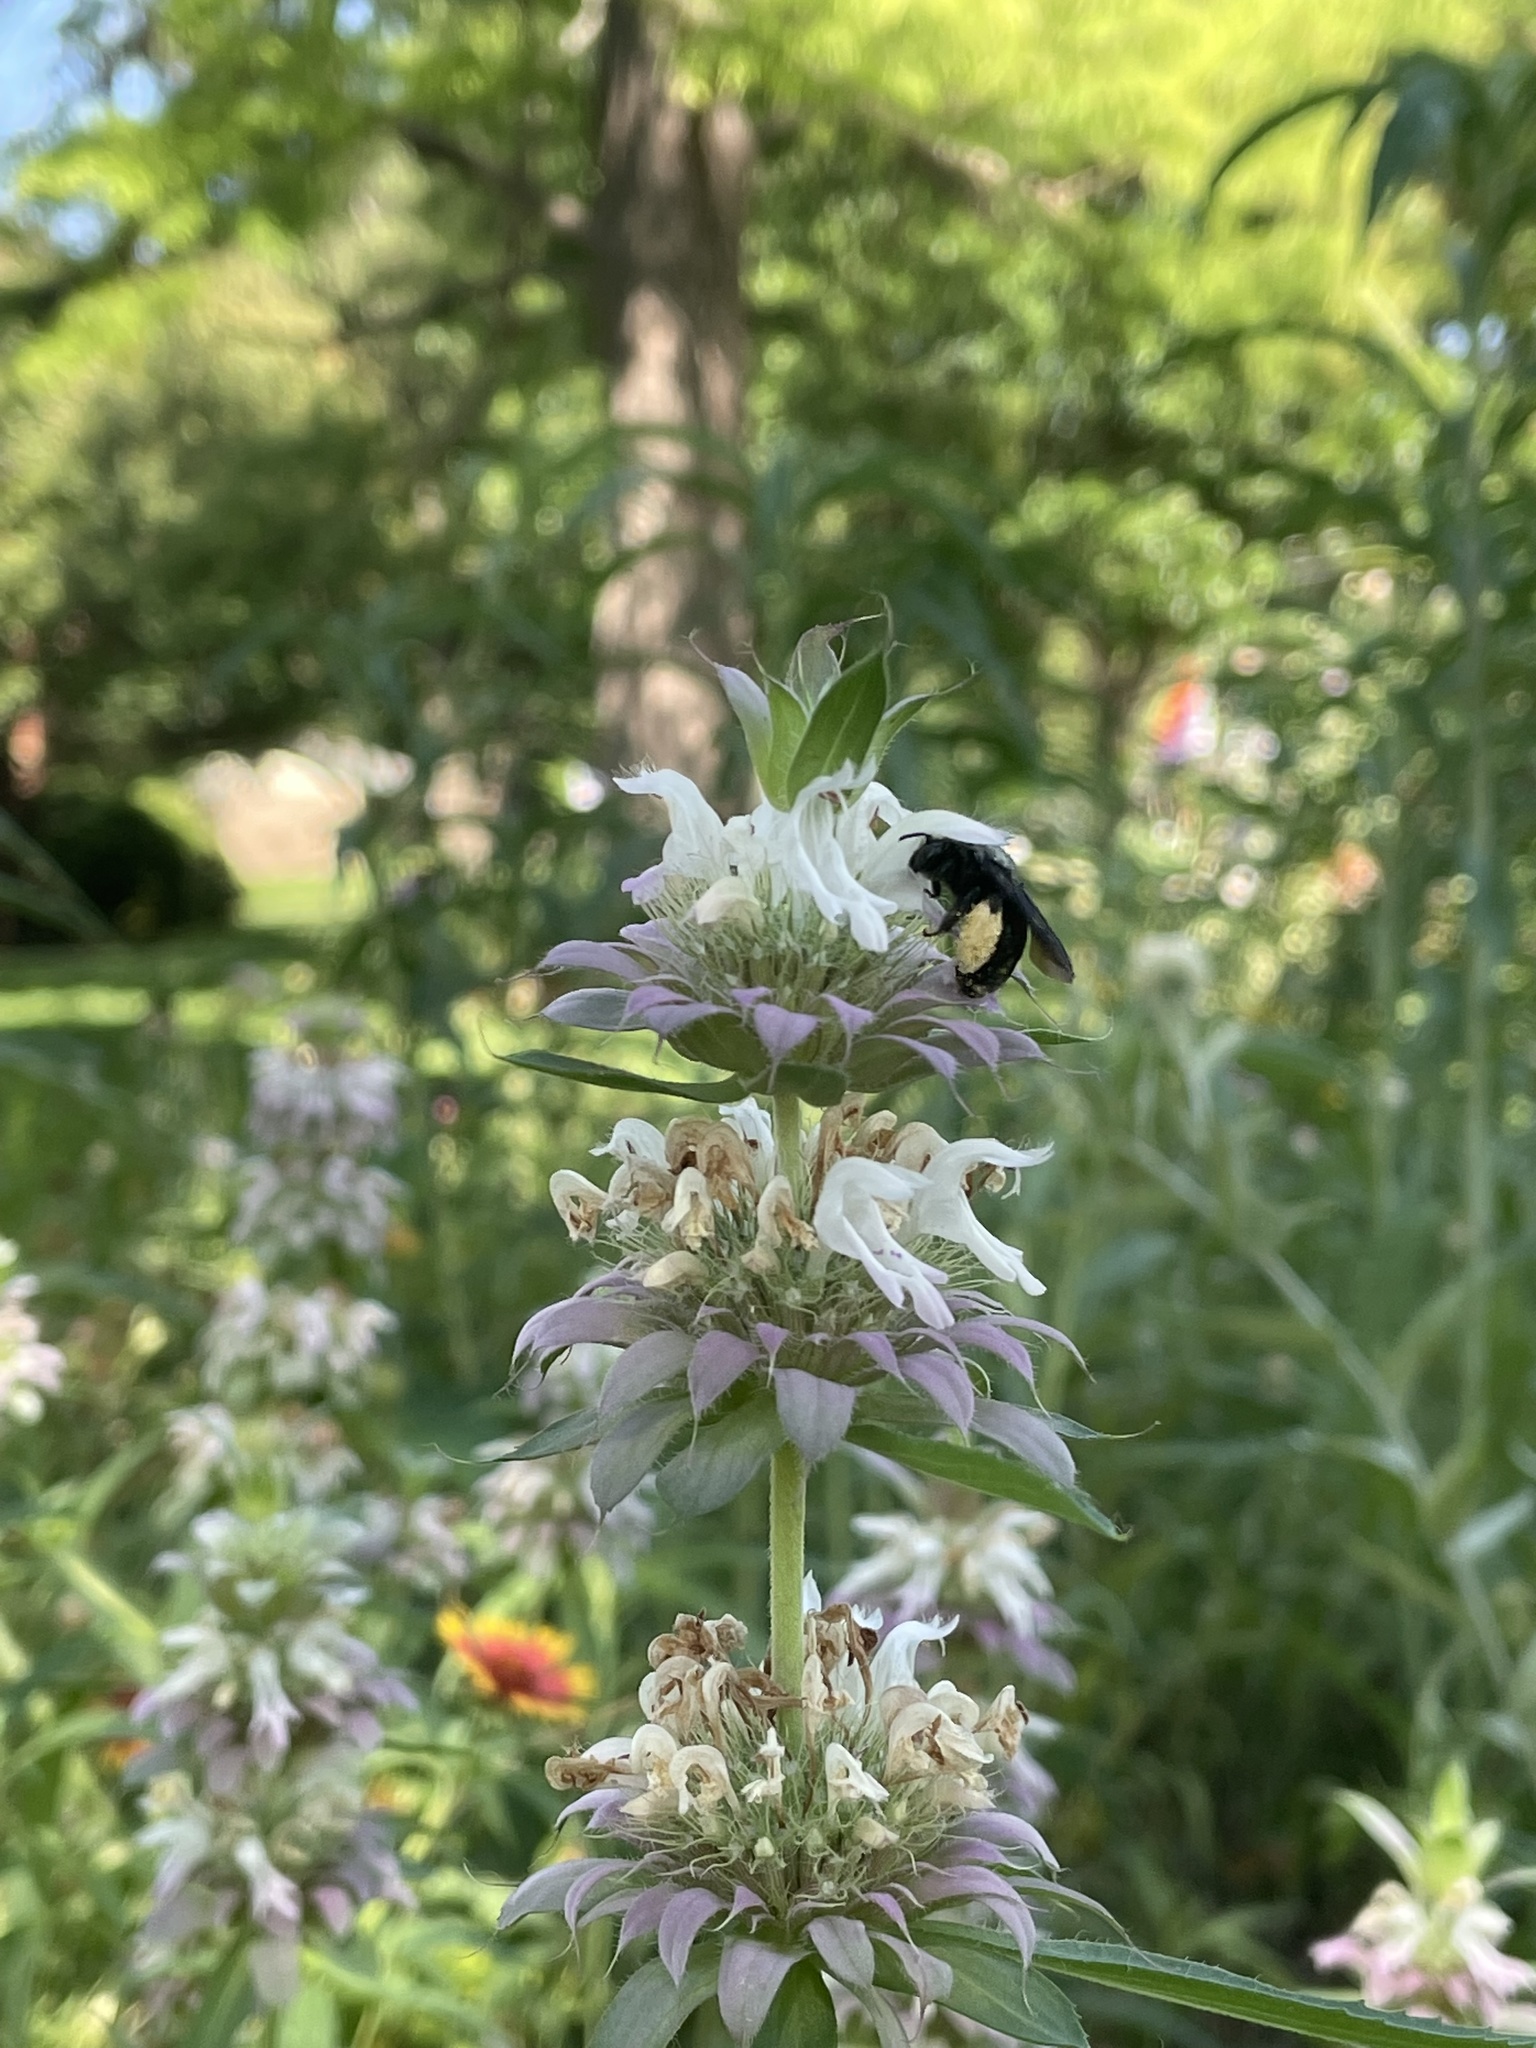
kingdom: Animalia
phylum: Arthropoda
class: Insecta
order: Hymenoptera
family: Apidae
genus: Melissodes
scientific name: Melissodes bimaculatus
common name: Two-spotted long-horned bee
